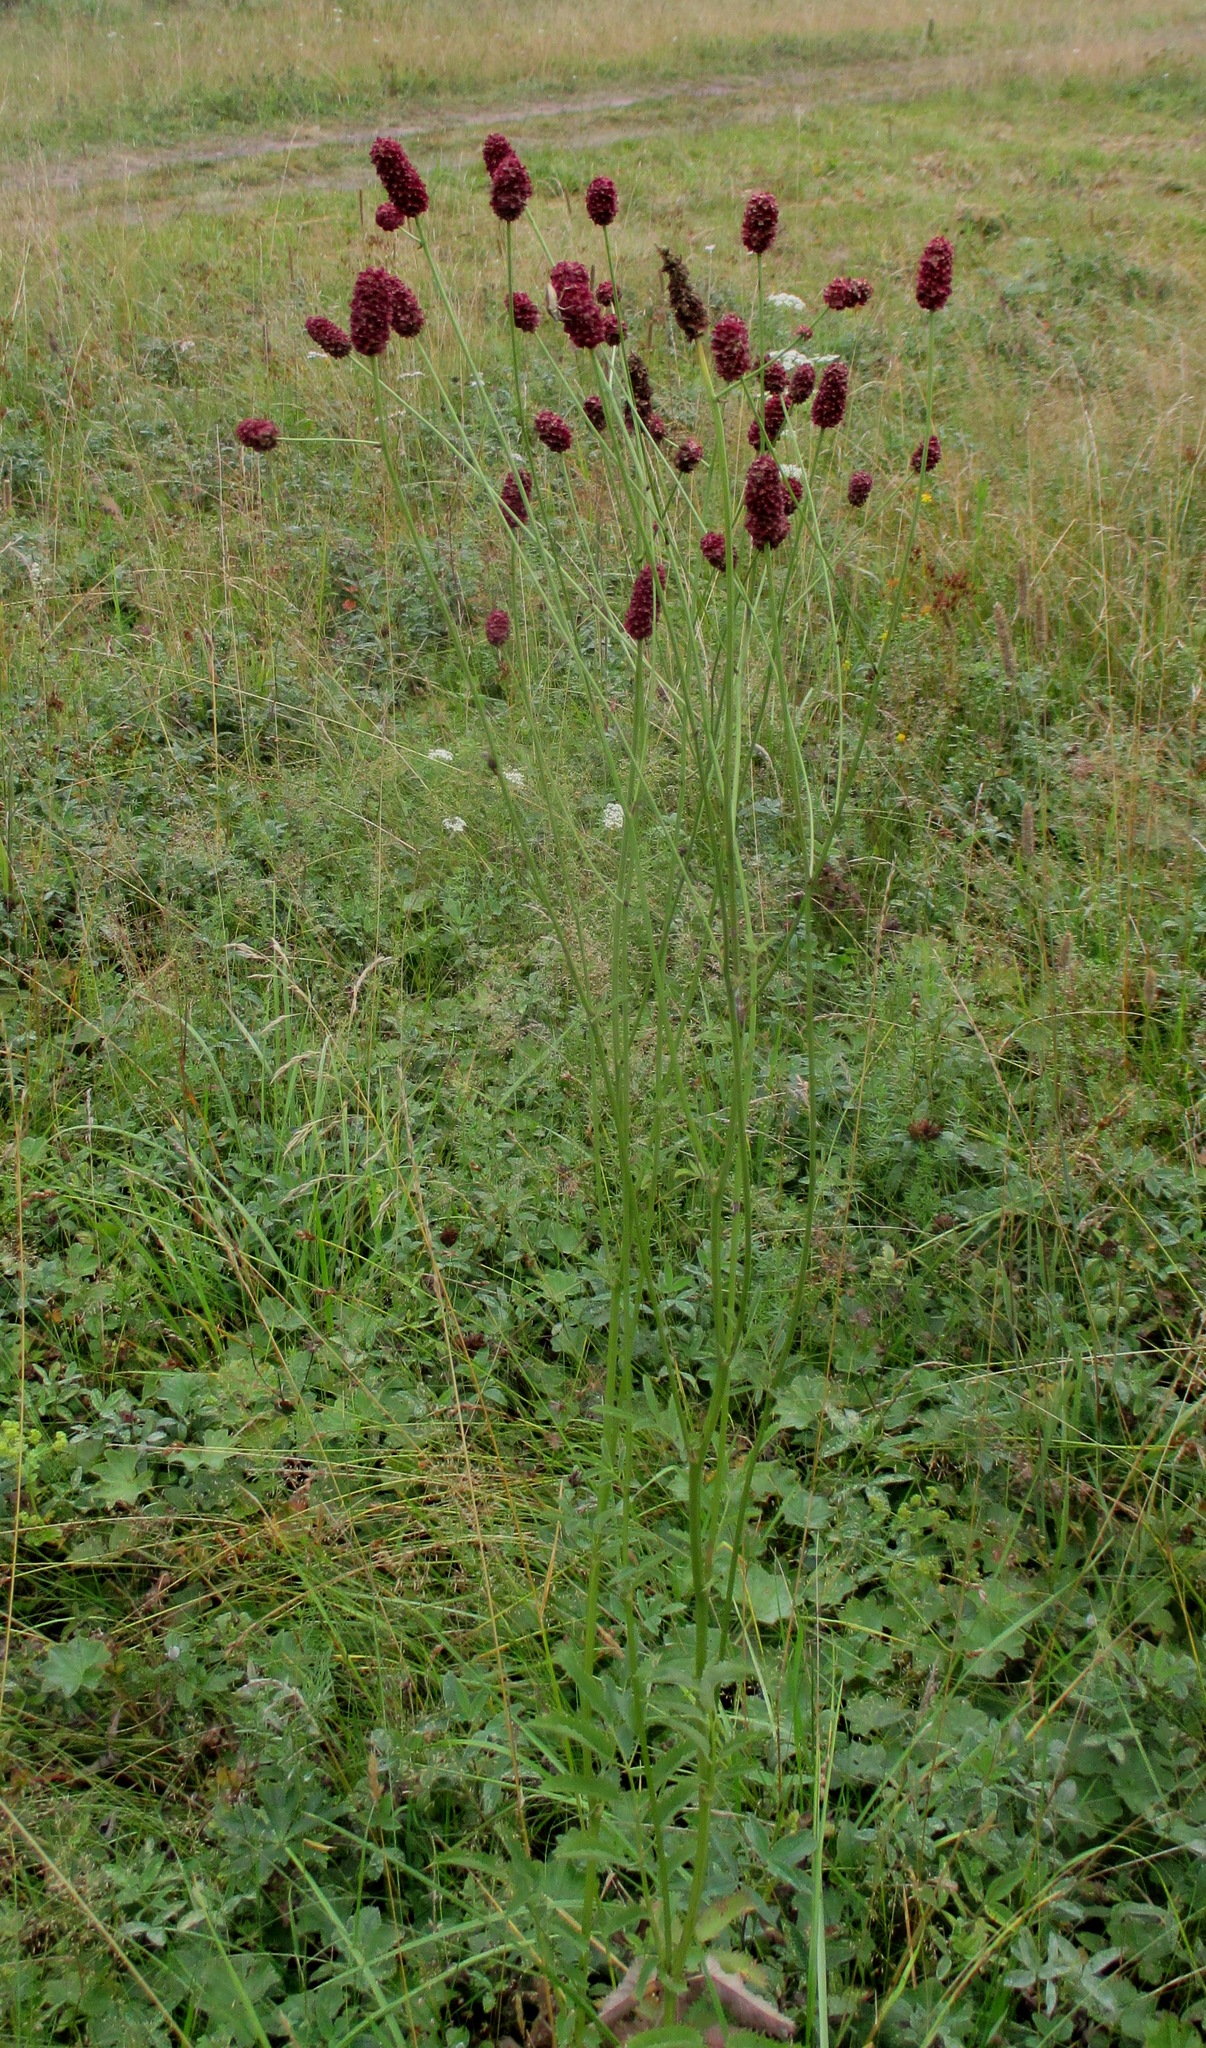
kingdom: Plantae
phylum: Tracheophyta
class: Magnoliopsida
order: Rosales
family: Rosaceae
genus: Sanguisorba
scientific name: Sanguisorba officinalis
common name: Great burnet
